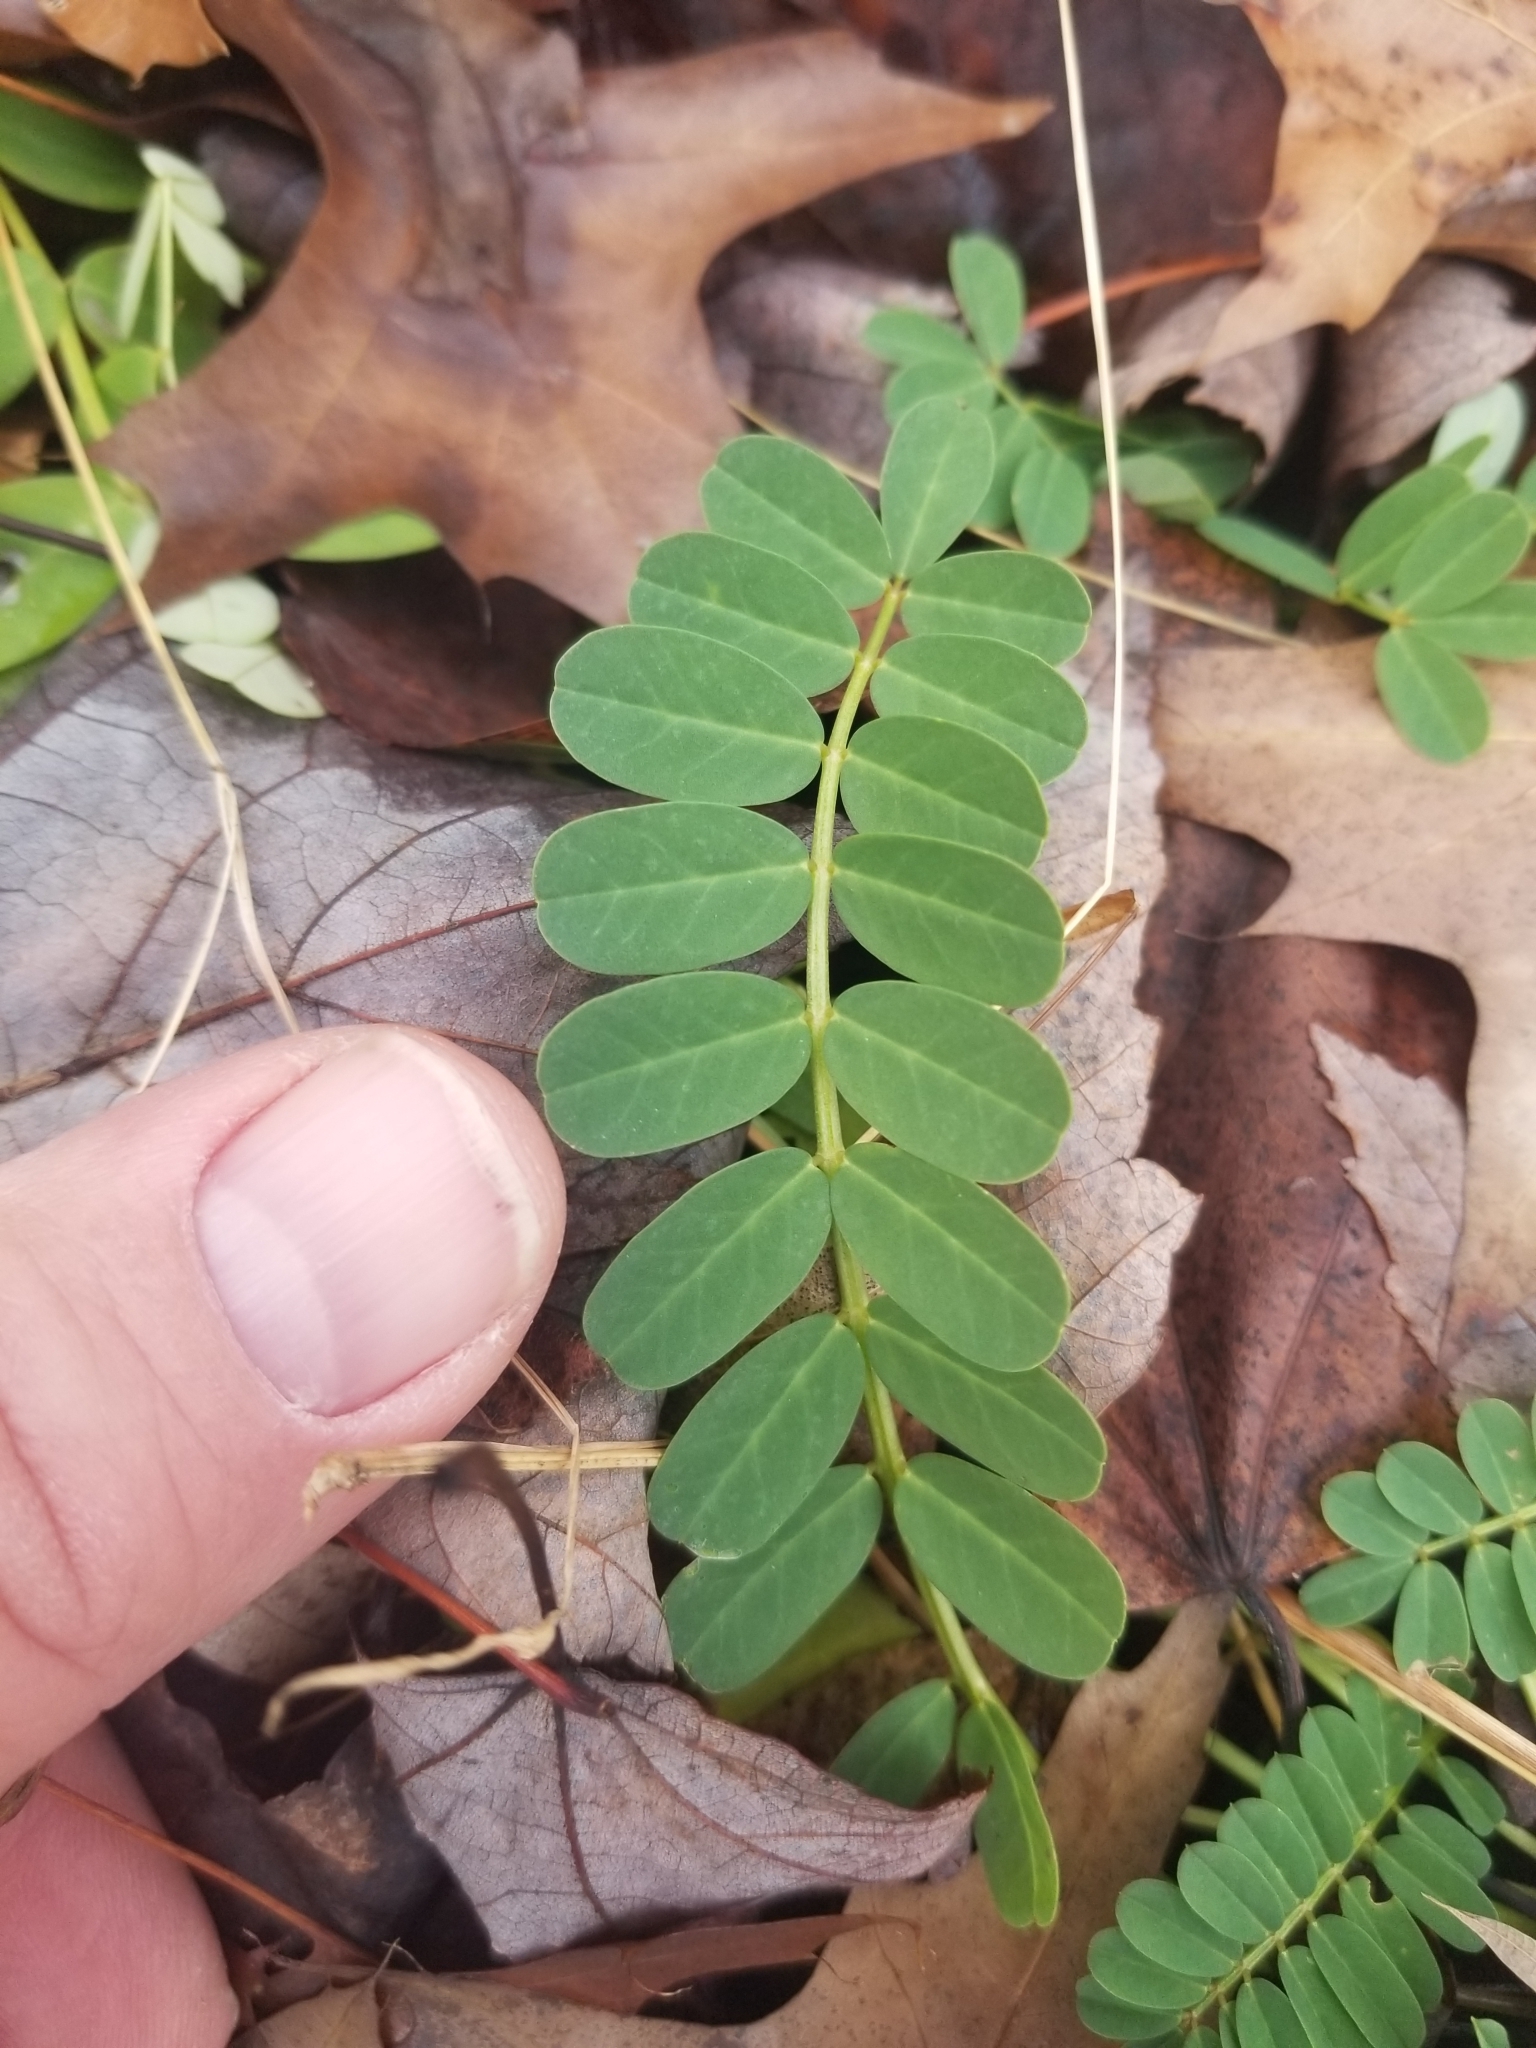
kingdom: Plantae
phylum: Tracheophyta
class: Magnoliopsida
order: Fabales
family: Fabaceae
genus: Coronilla
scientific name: Coronilla varia
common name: Crownvetch
